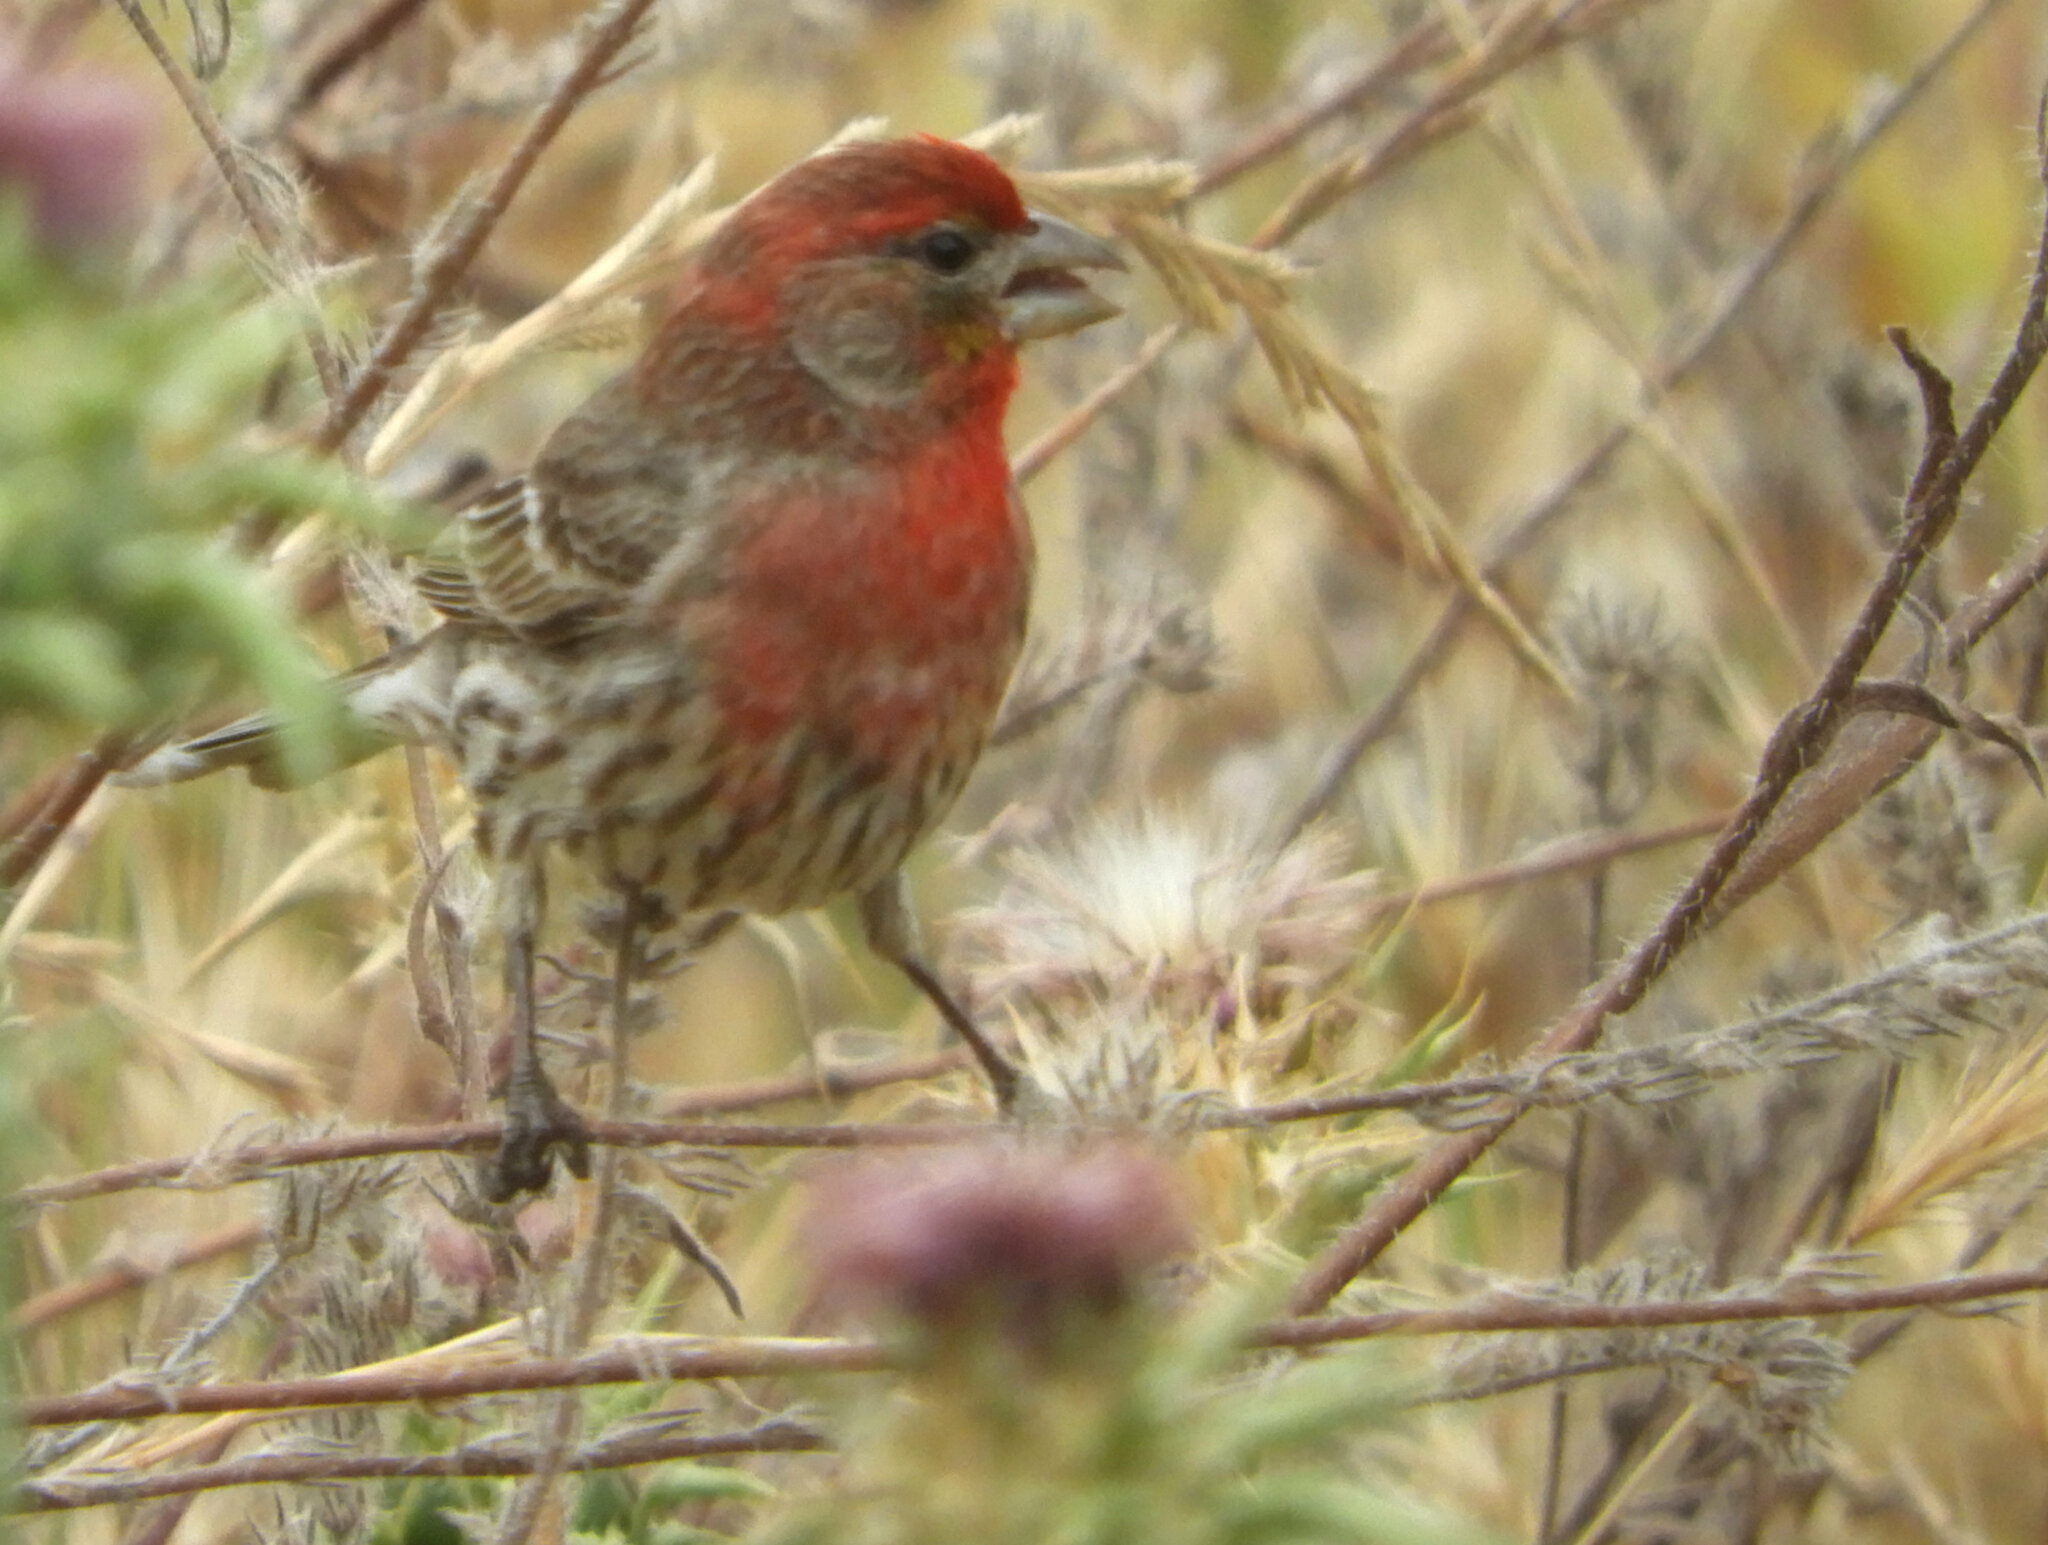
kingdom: Animalia
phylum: Chordata
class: Aves
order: Passeriformes
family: Fringillidae
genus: Haemorhous
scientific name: Haemorhous mexicanus
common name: House finch
